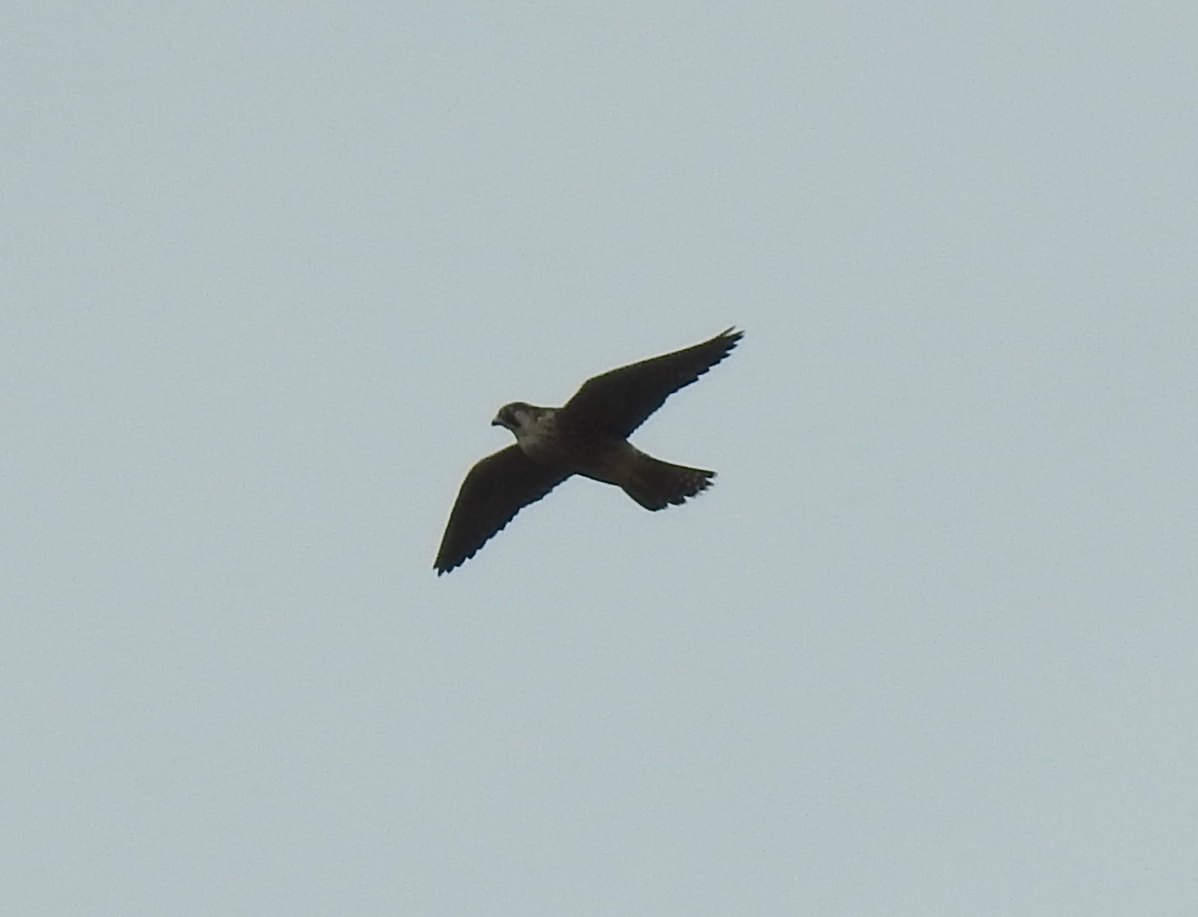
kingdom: Animalia
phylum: Chordata
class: Aves
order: Falconiformes
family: Falconidae
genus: Falco
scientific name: Falco peregrinus
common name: Peregrine falcon
